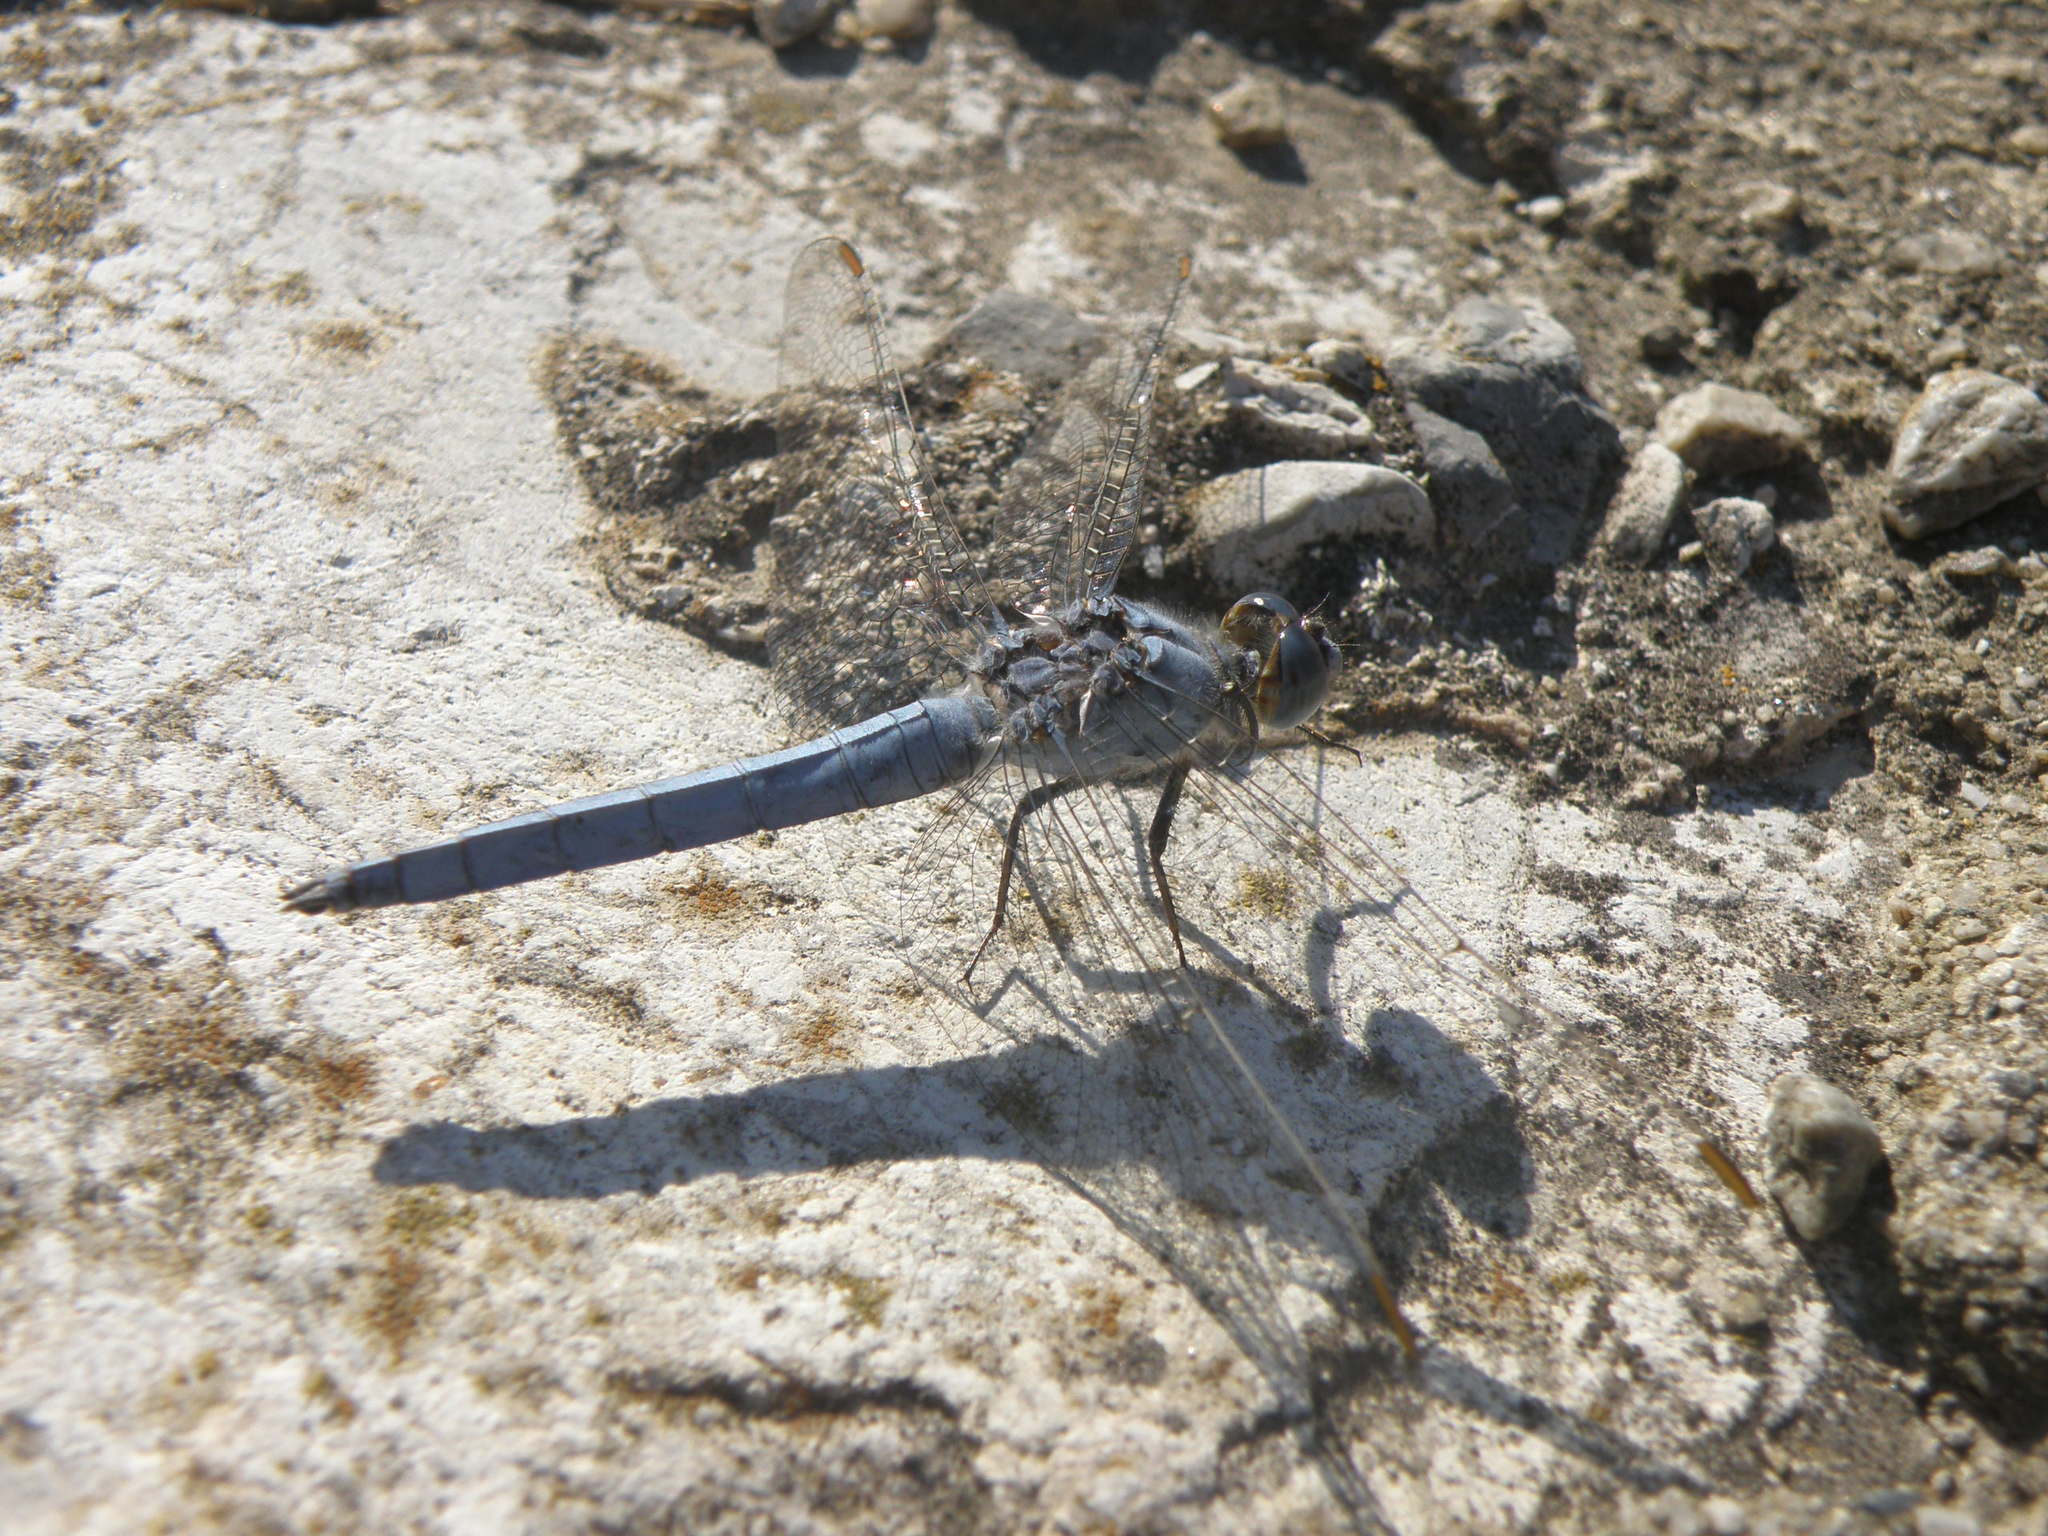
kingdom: Animalia
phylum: Arthropoda
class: Insecta
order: Odonata
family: Libellulidae
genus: Orthetrum
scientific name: Orthetrum brunneum
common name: Southern skimmer
